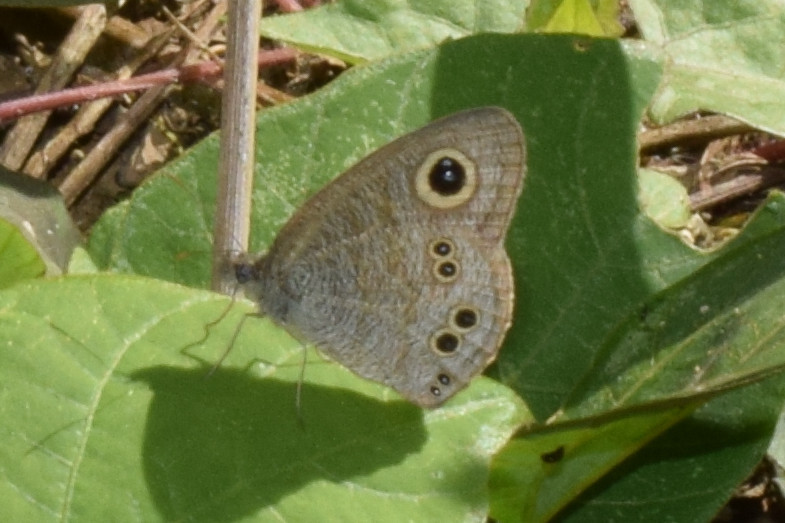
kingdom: Animalia
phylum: Arthropoda
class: Insecta
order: Lepidoptera
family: Nymphalidae
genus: Ypthima
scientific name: Ypthima baldus
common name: Common five-ring
